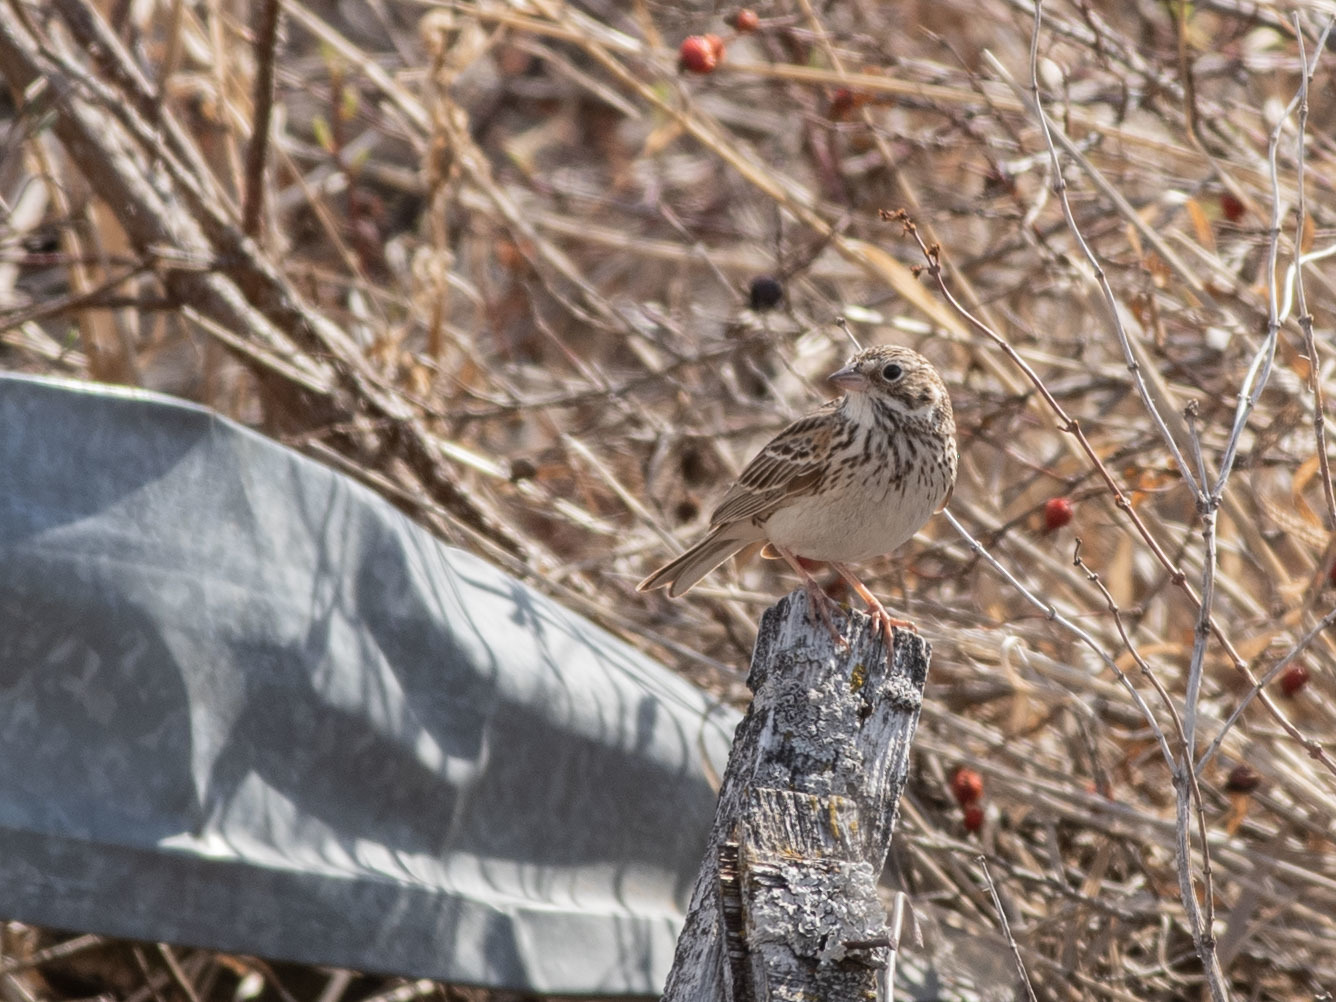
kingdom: Animalia
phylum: Chordata
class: Aves
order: Passeriformes
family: Passerellidae
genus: Pooecetes
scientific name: Pooecetes gramineus
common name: Vesper sparrow
